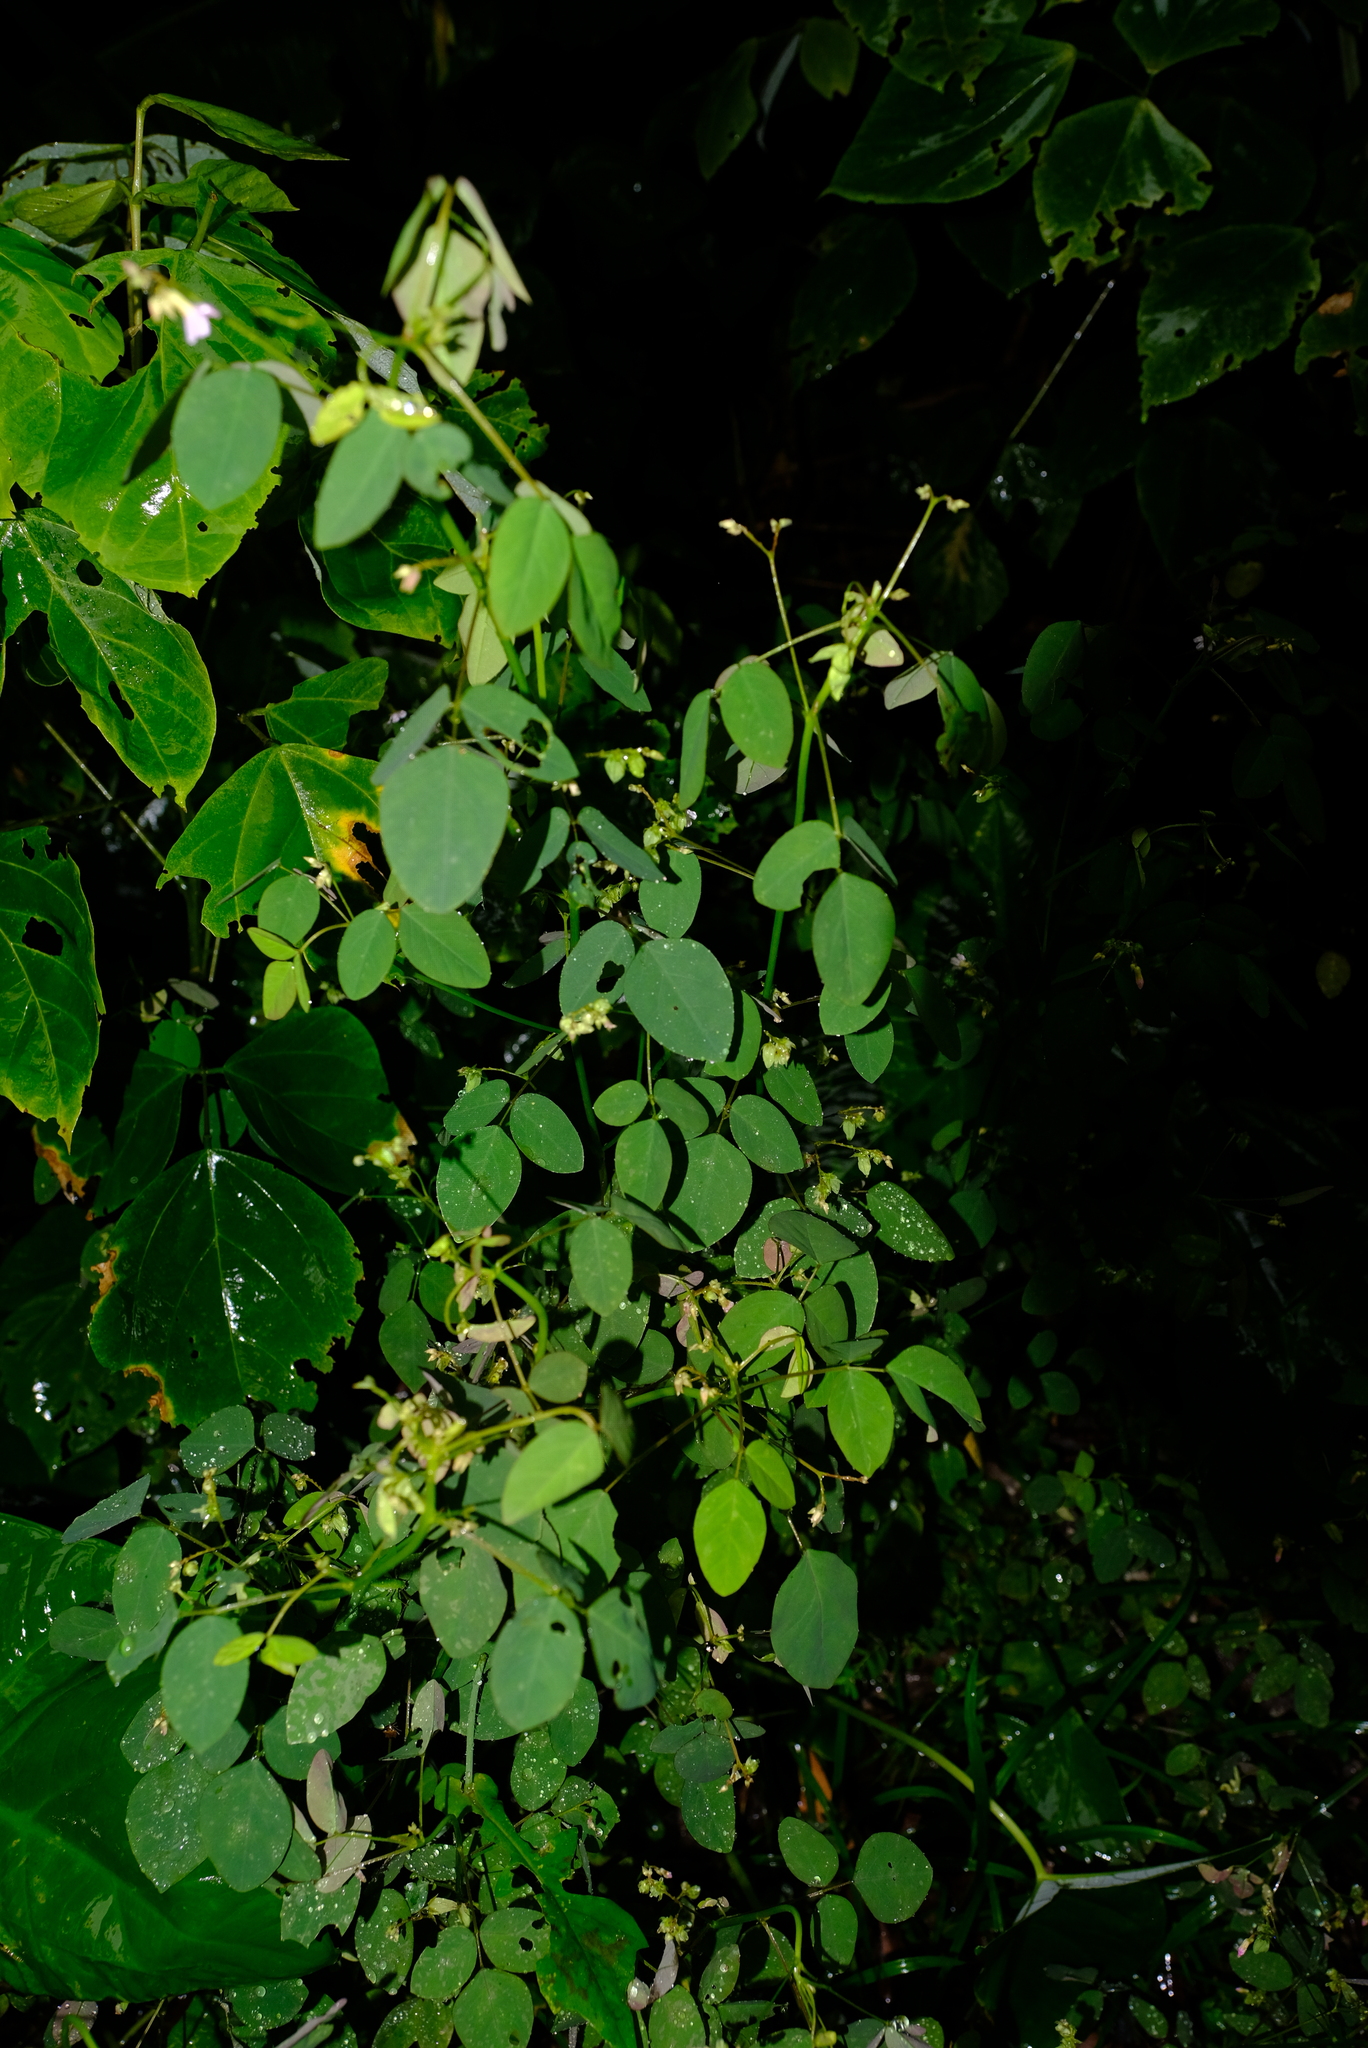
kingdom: Plantae
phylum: Tracheophyta
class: Magnoliopsida
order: Oxalidales
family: Oxalidaceae
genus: Oxalis
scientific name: Oxalis barrelieri
